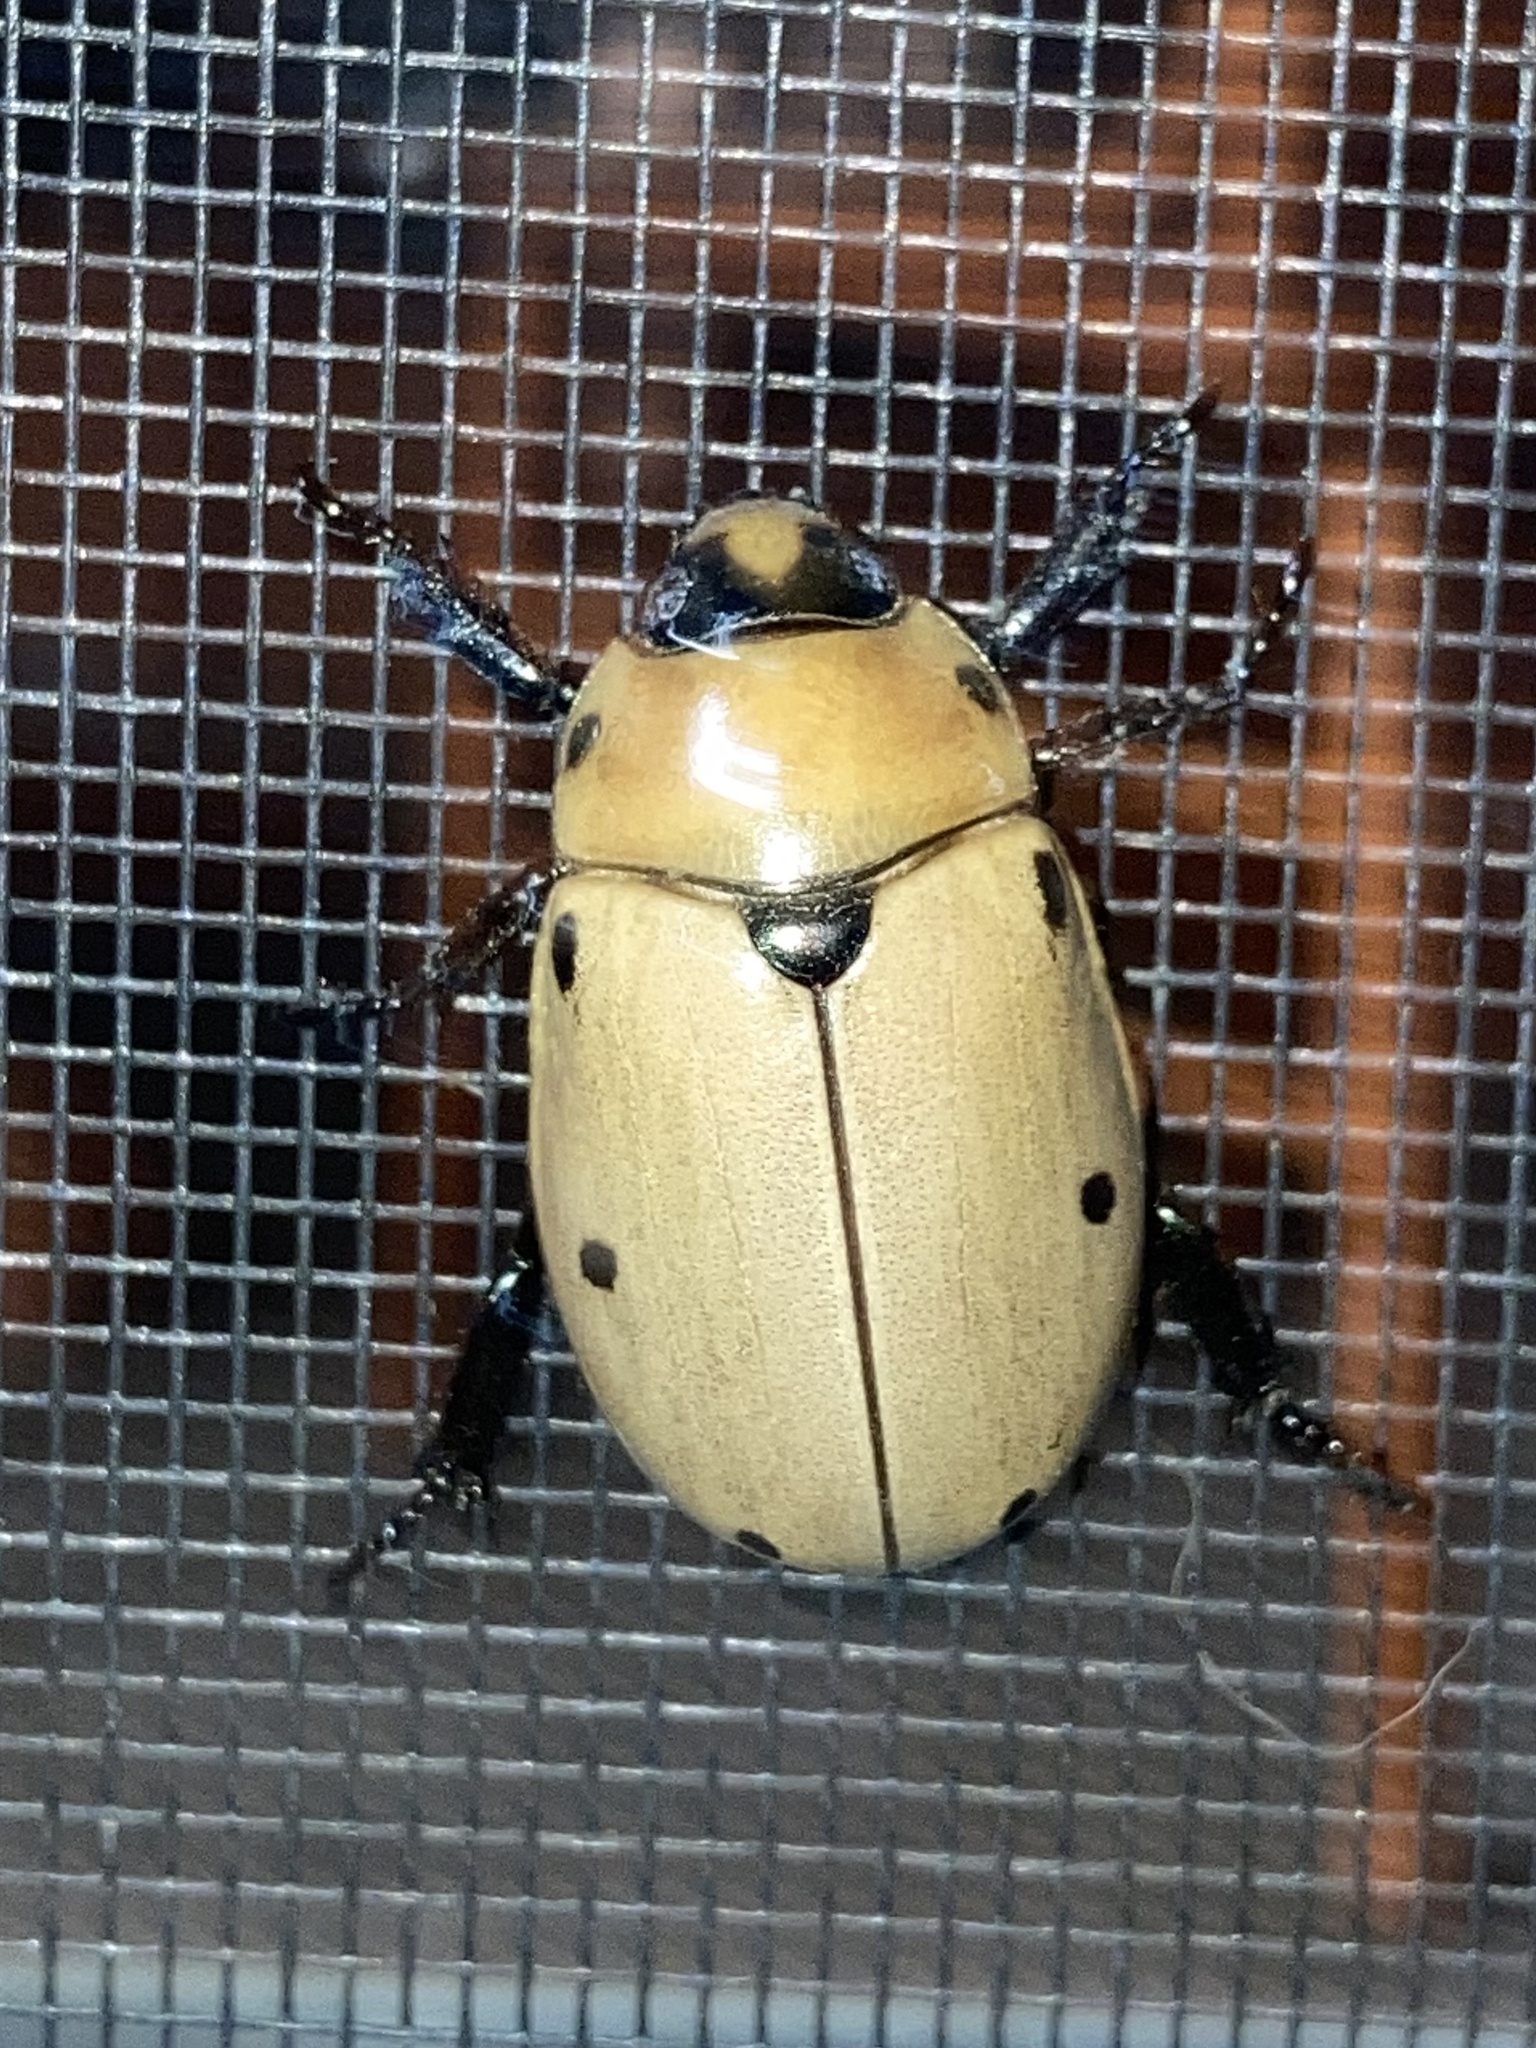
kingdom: Animalia
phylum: Arthropoda
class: Insecta
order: Coleoptera
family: Scarabaeidae
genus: Pelidnota
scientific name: Pelidnota punctata
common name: Grapevine beetle
